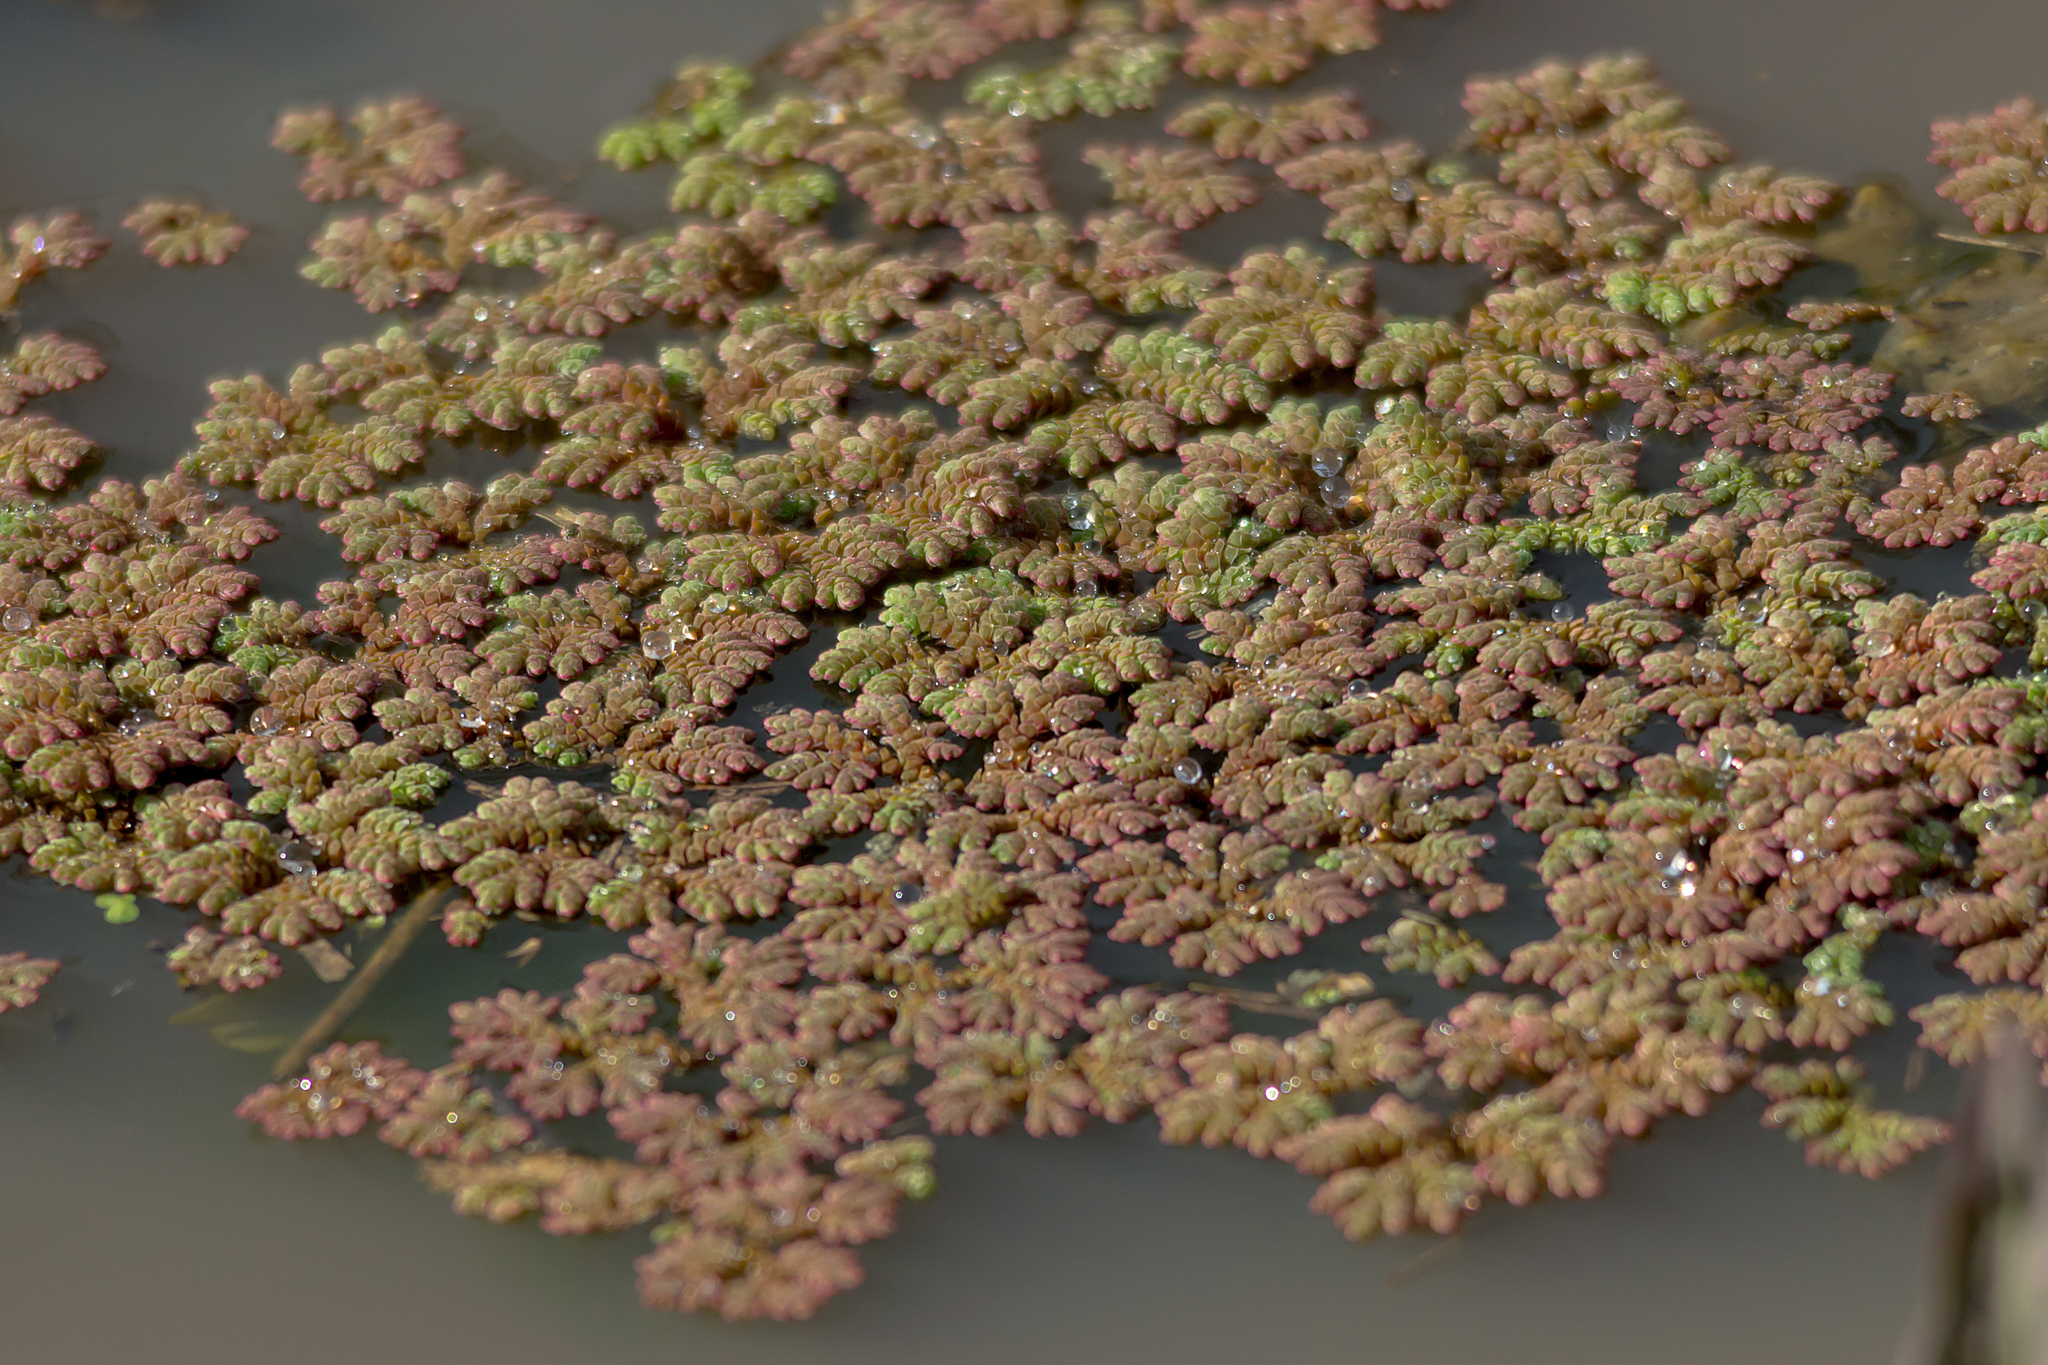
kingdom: Plantae
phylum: Tracheophyta
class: Polypodiopsida
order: Salviniales
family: Salviniaceae
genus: Azolla
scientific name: Azolla rubra
